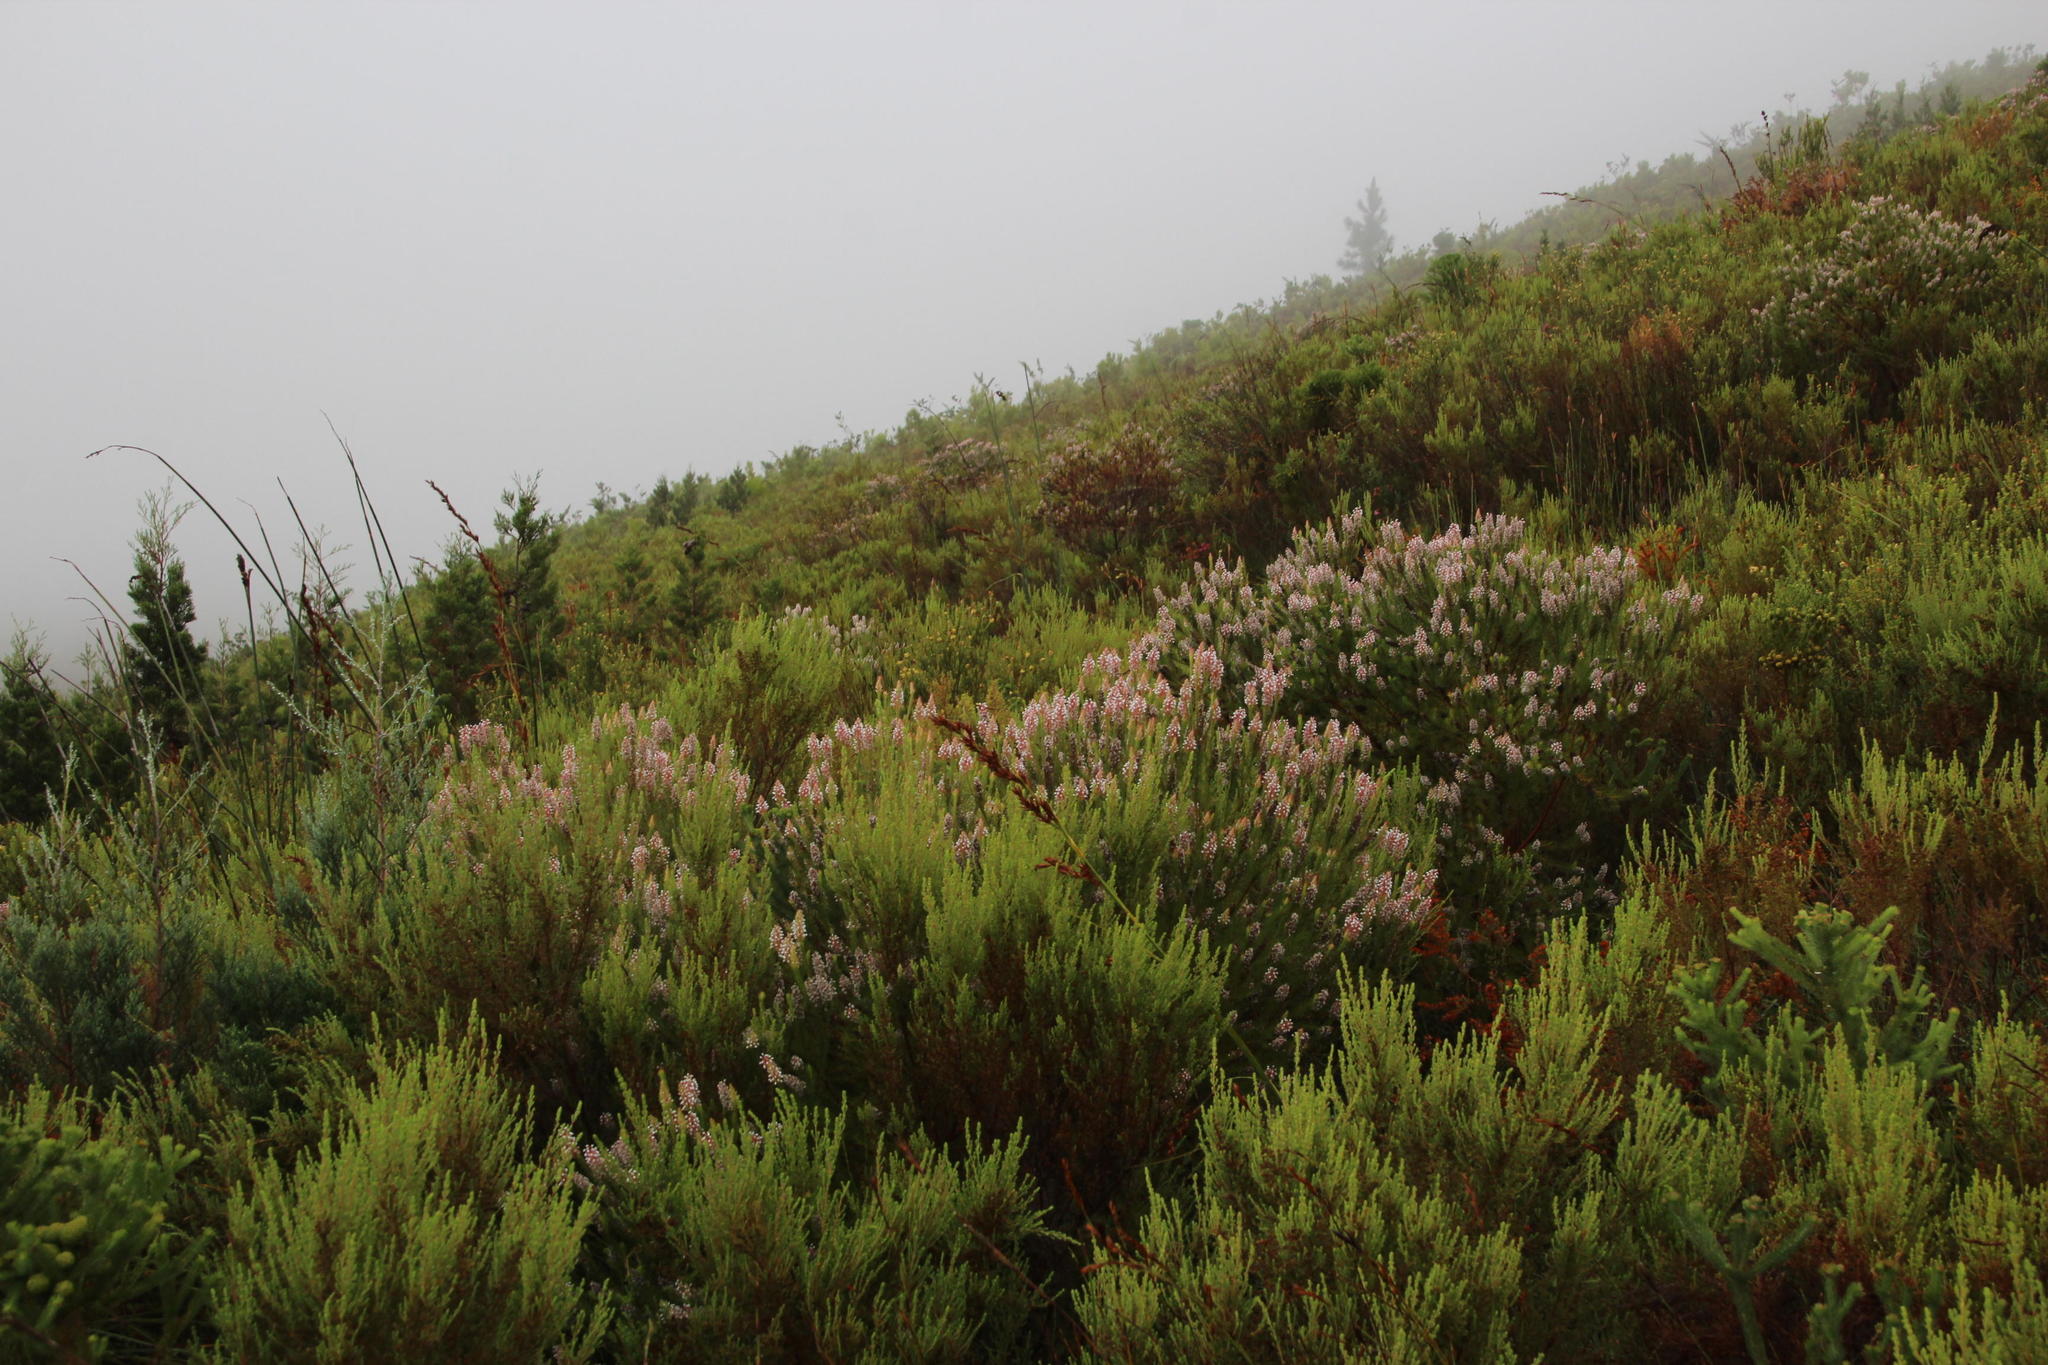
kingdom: Plantae
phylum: Tracheophyta
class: Magnoliopsida
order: Proteales
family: Proteaceae
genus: Spatalla
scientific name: Spatalla parilis
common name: Spike spoon
